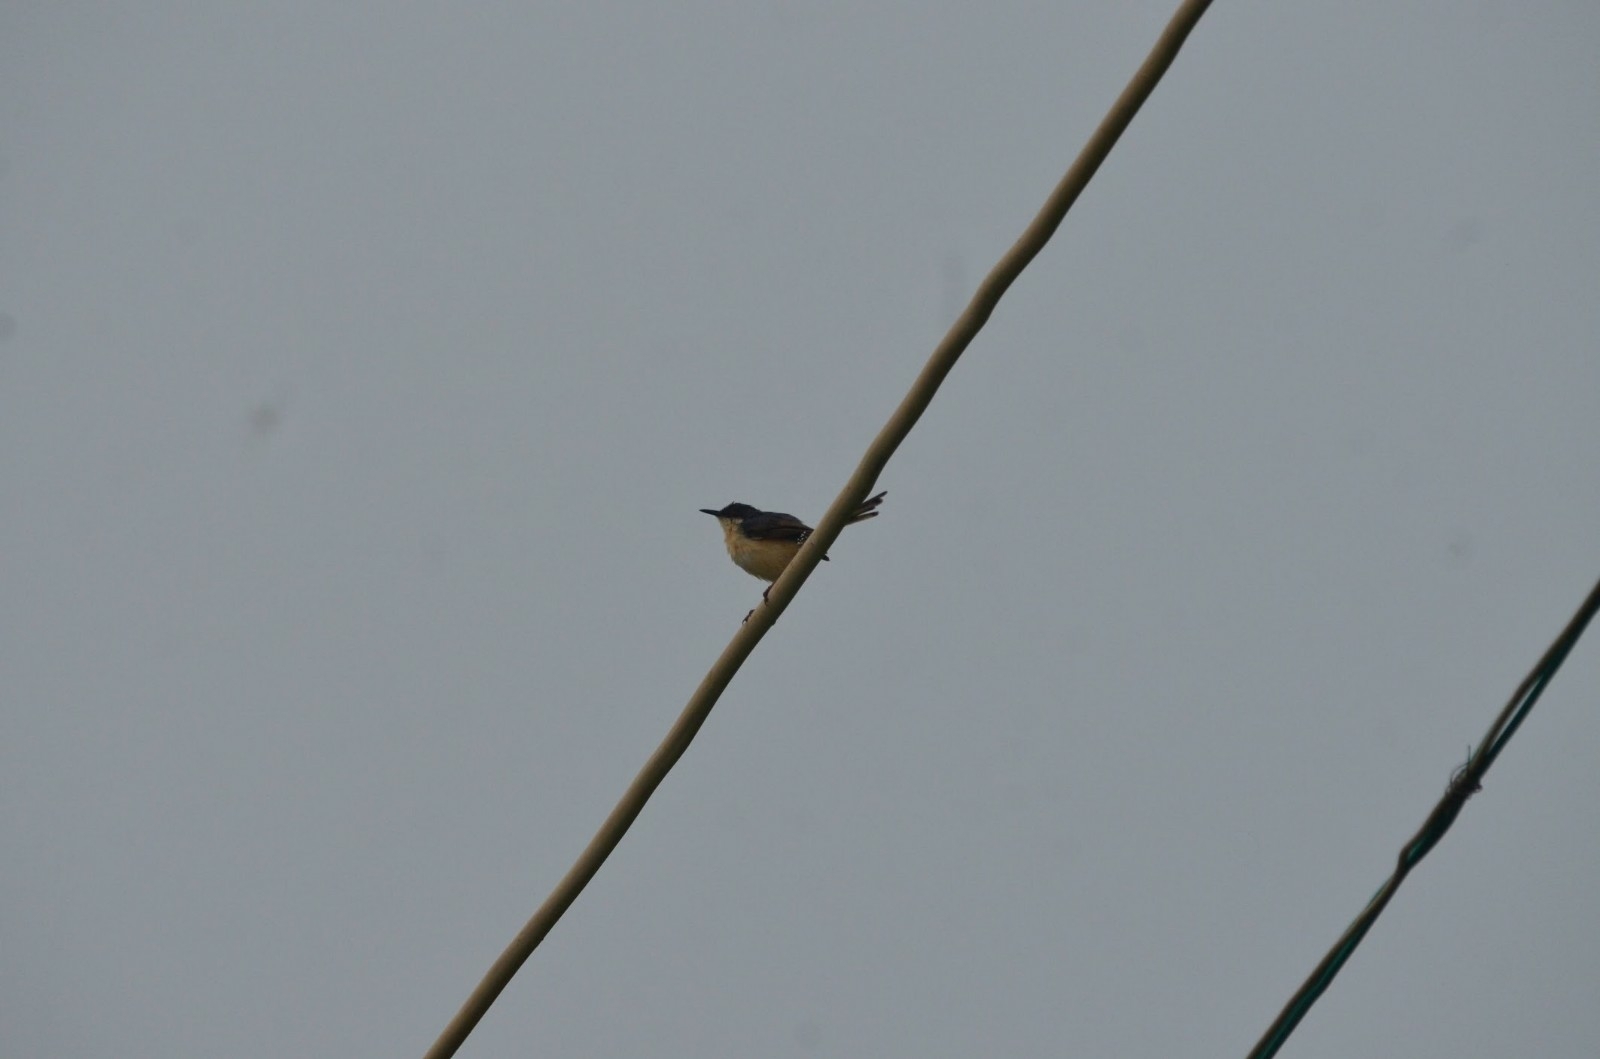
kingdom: Animalia
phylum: Chordata
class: Aves
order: Passeriformes
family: Cisticolidae
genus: Prinia
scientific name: Prinia socialis
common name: Ashy prinia
